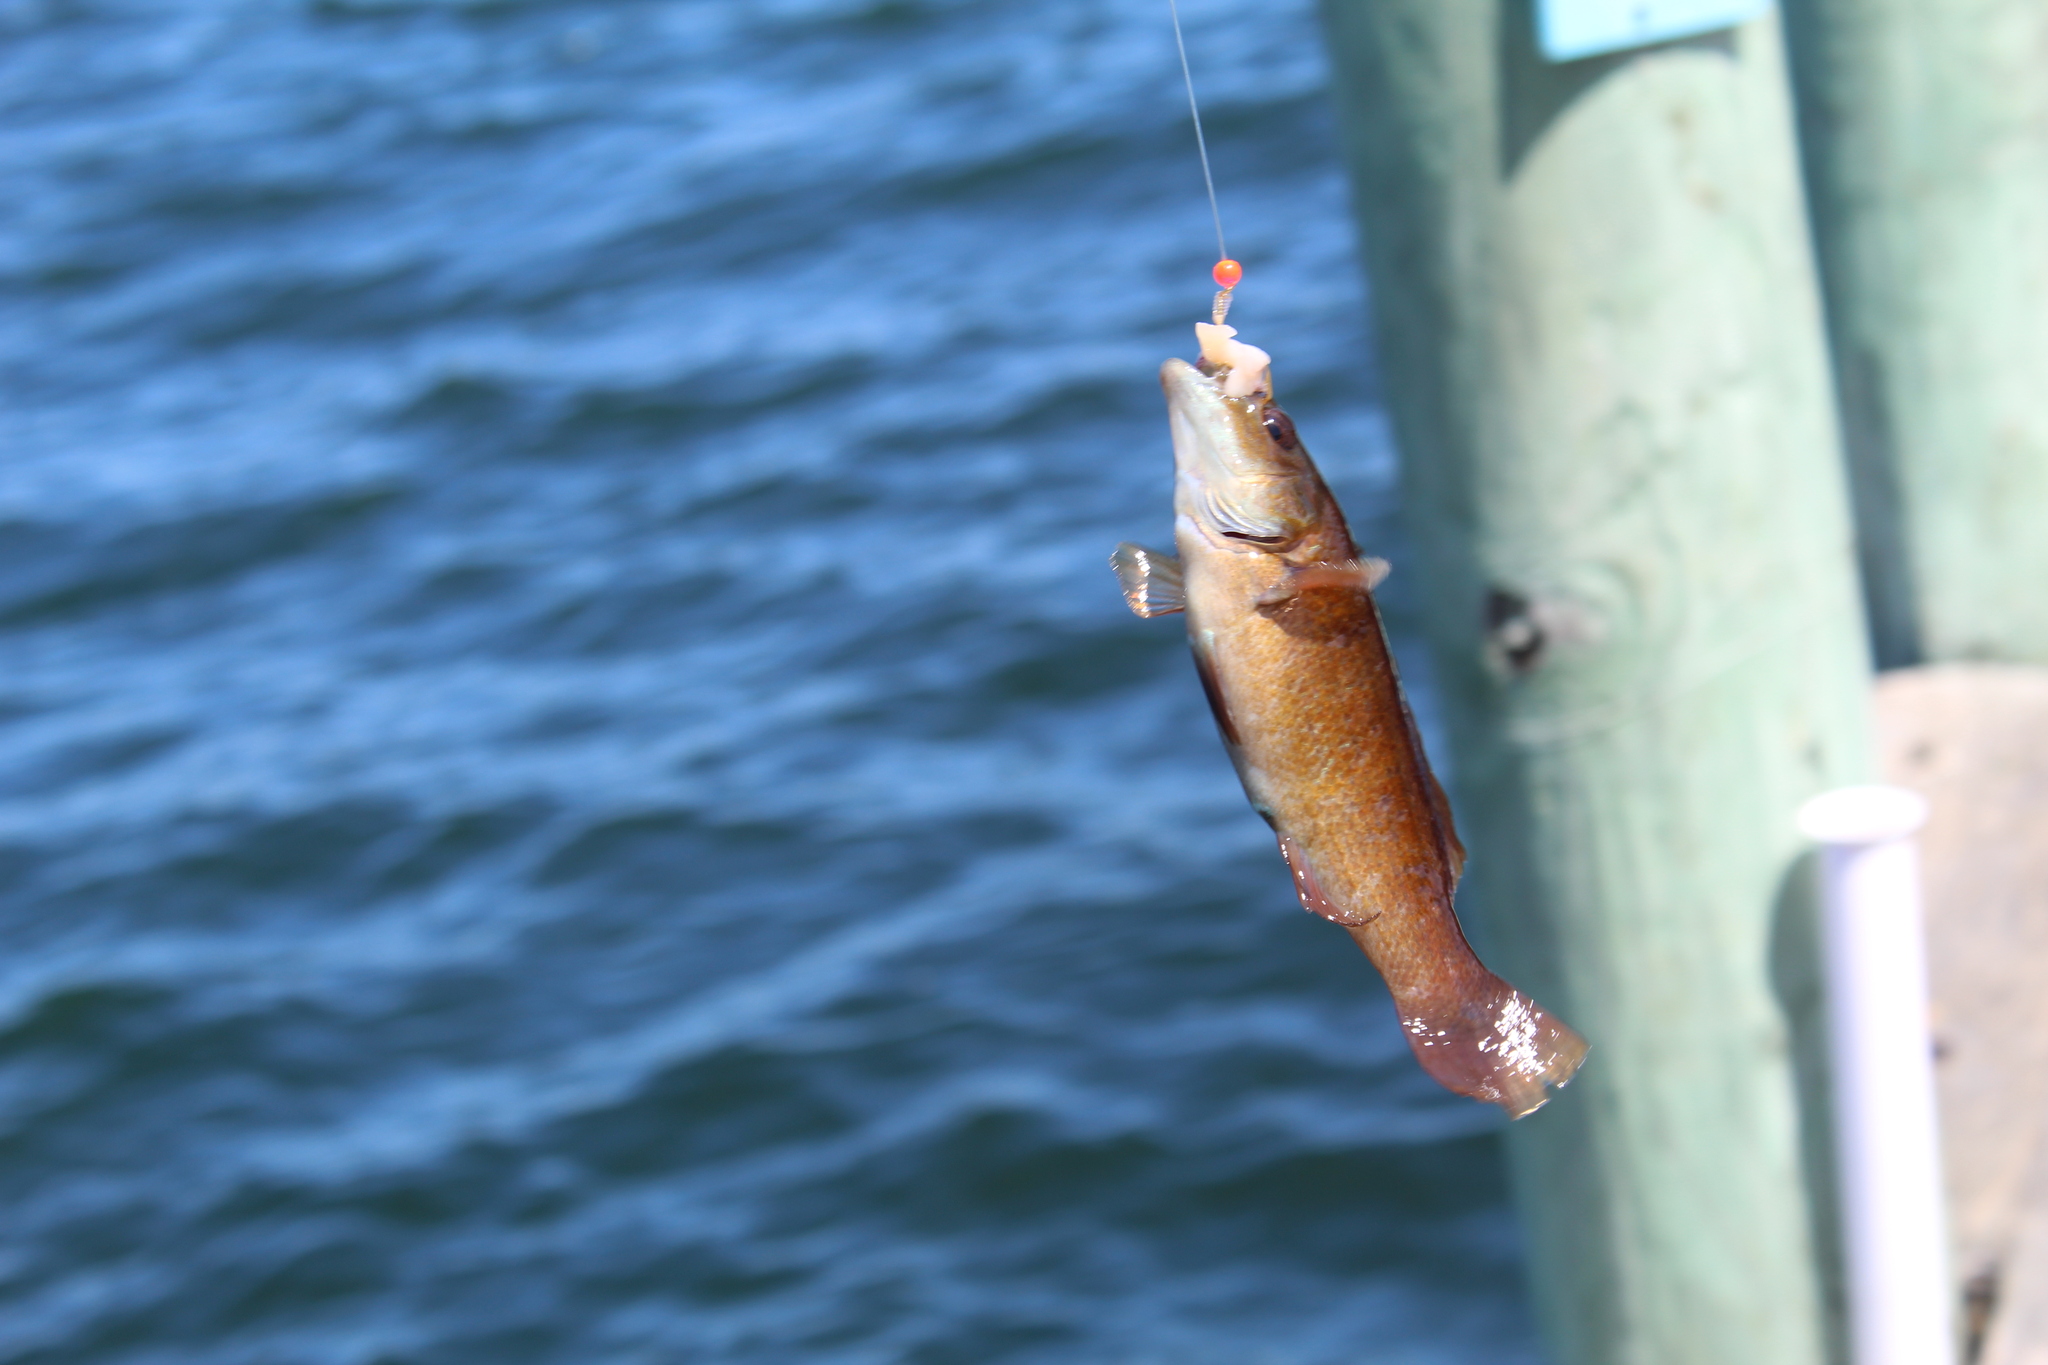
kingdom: Animalia
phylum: Chordata
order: Perciformes
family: Labridae
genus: Tautogolabrus
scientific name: Tautogolabrus adspersus
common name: Cunner
